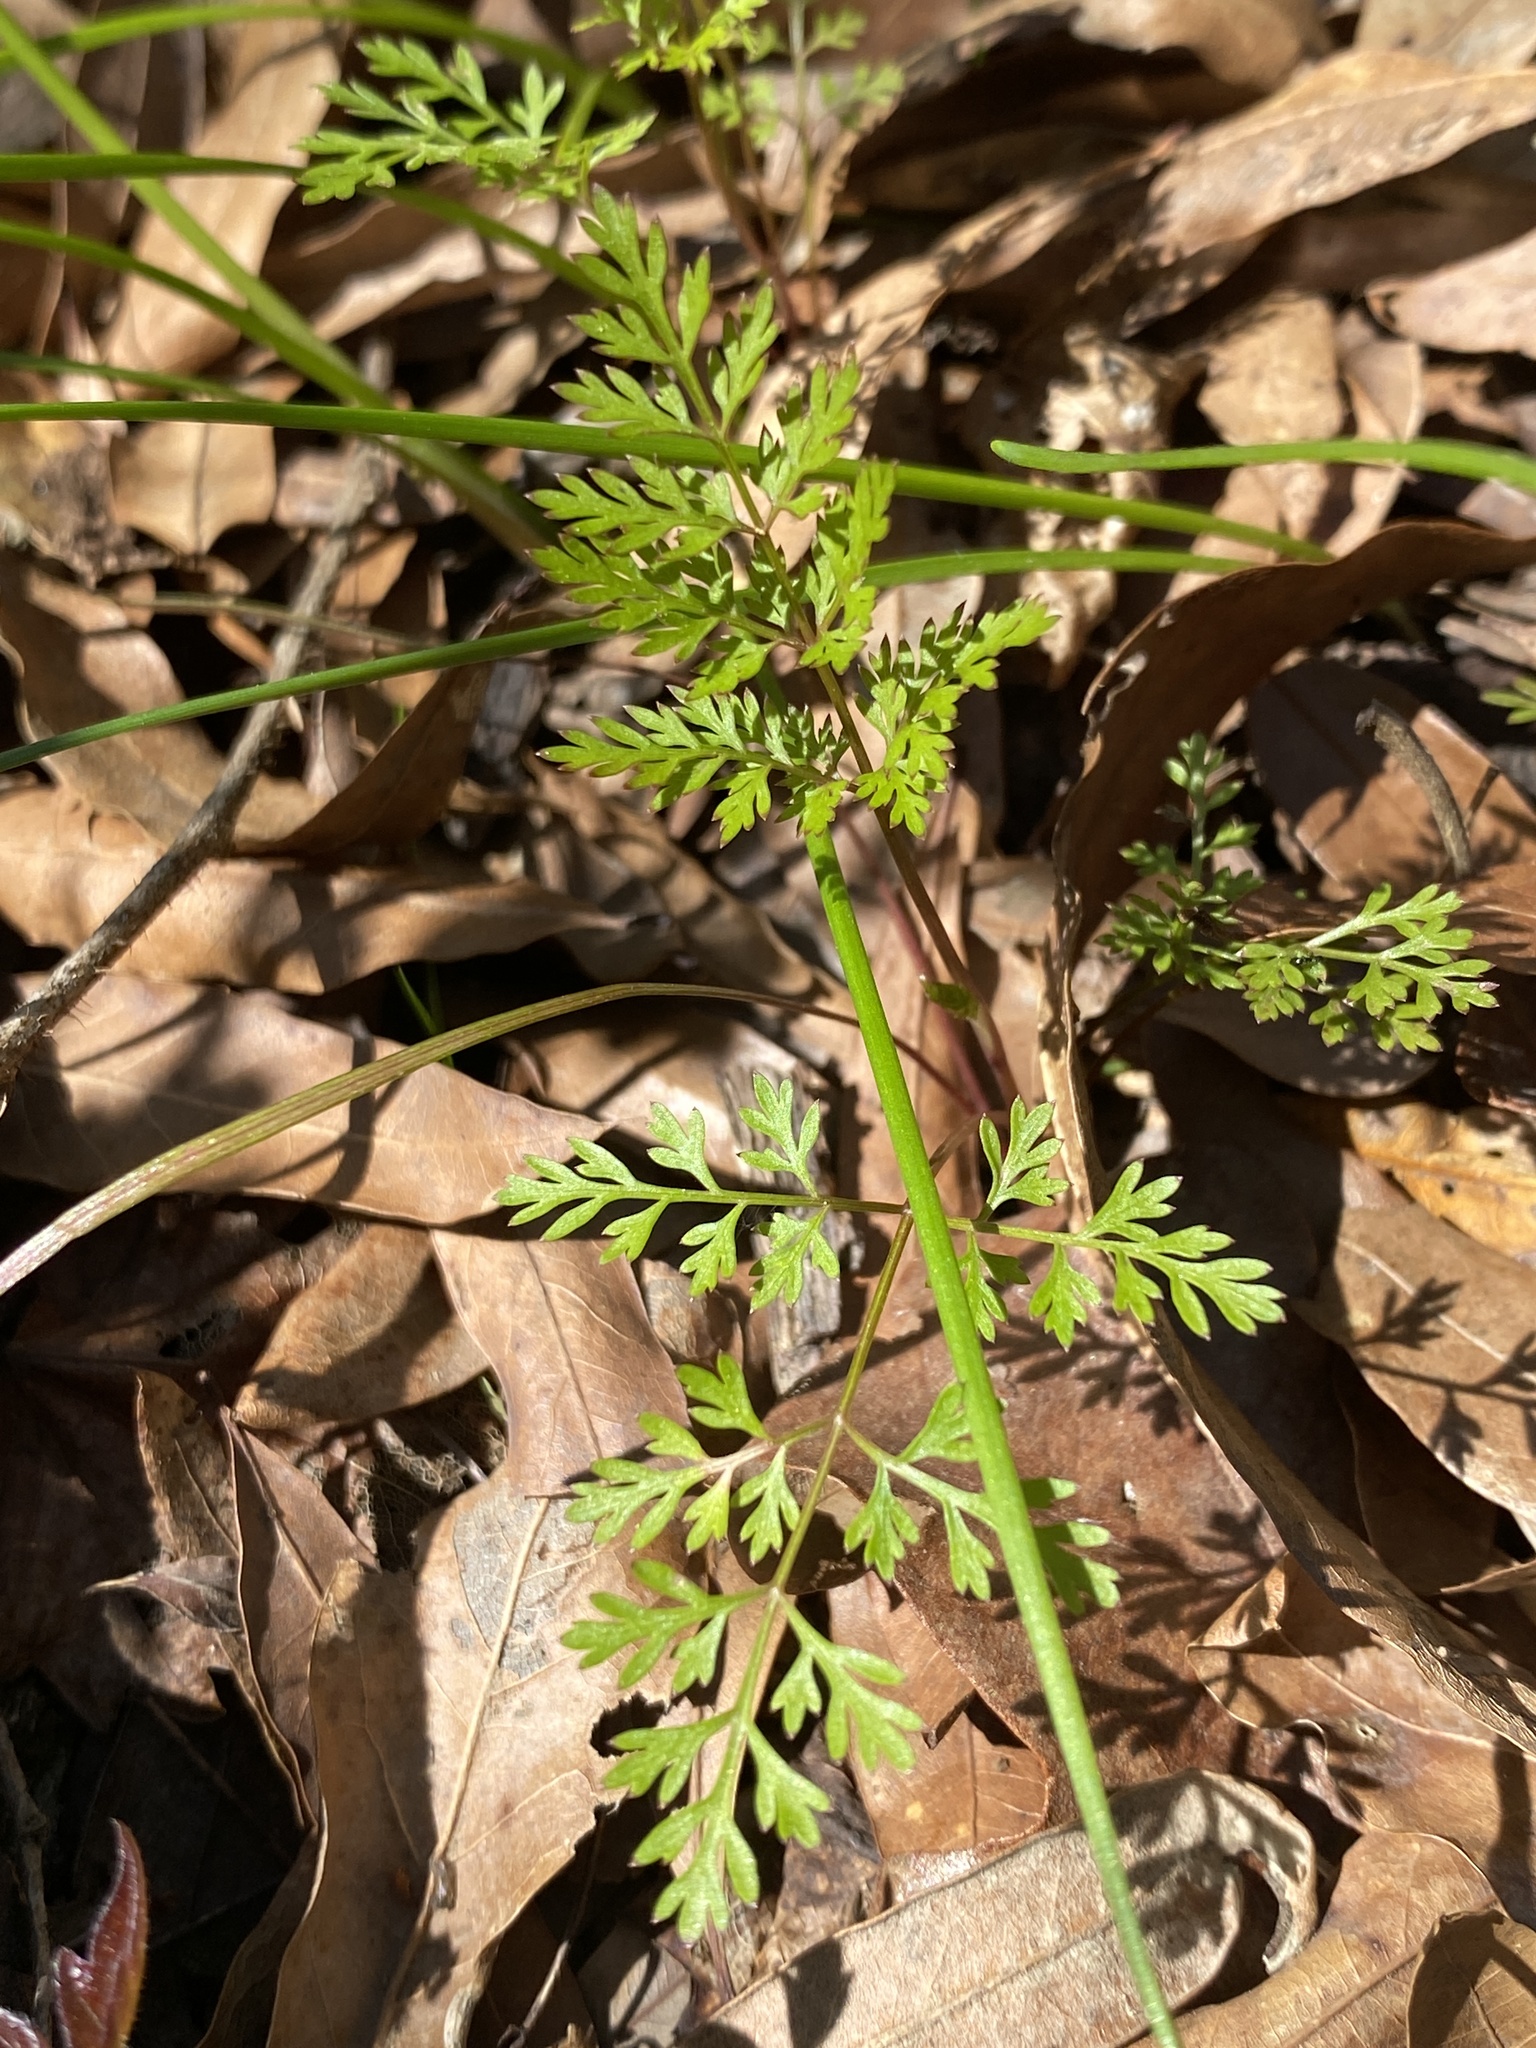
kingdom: Plantae
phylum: Tracheophyta
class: Magnoliopsida
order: Apiales
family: Apiaceae
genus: Trepocarpus
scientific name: Trepocarpus aethusae
